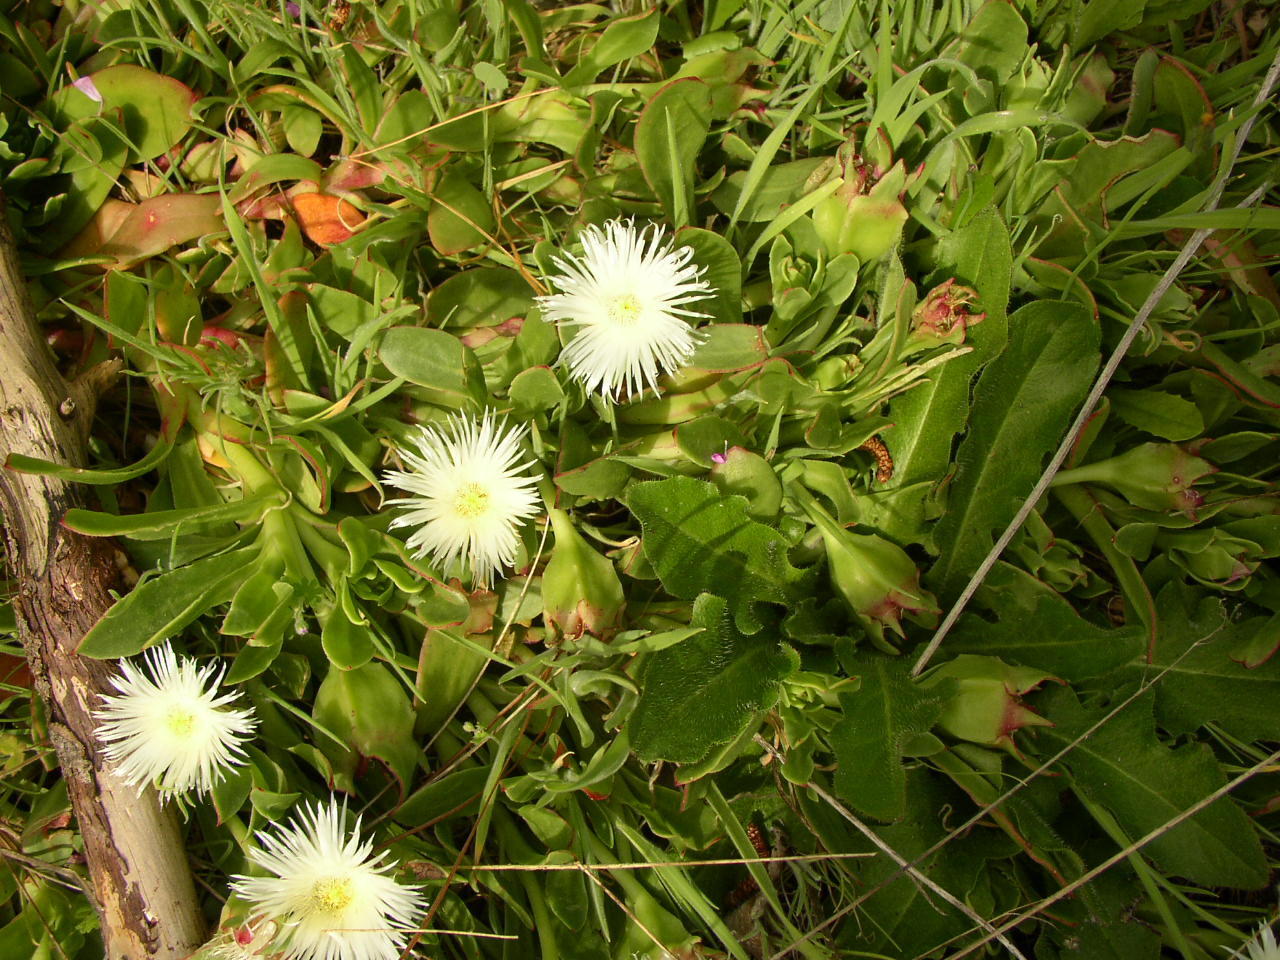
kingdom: Plantae
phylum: Tracheophyta
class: Magnoliopsida
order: Caryophyllales
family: Aizoaceae
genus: Skiatophytum
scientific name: Skiatophytum tripolium
